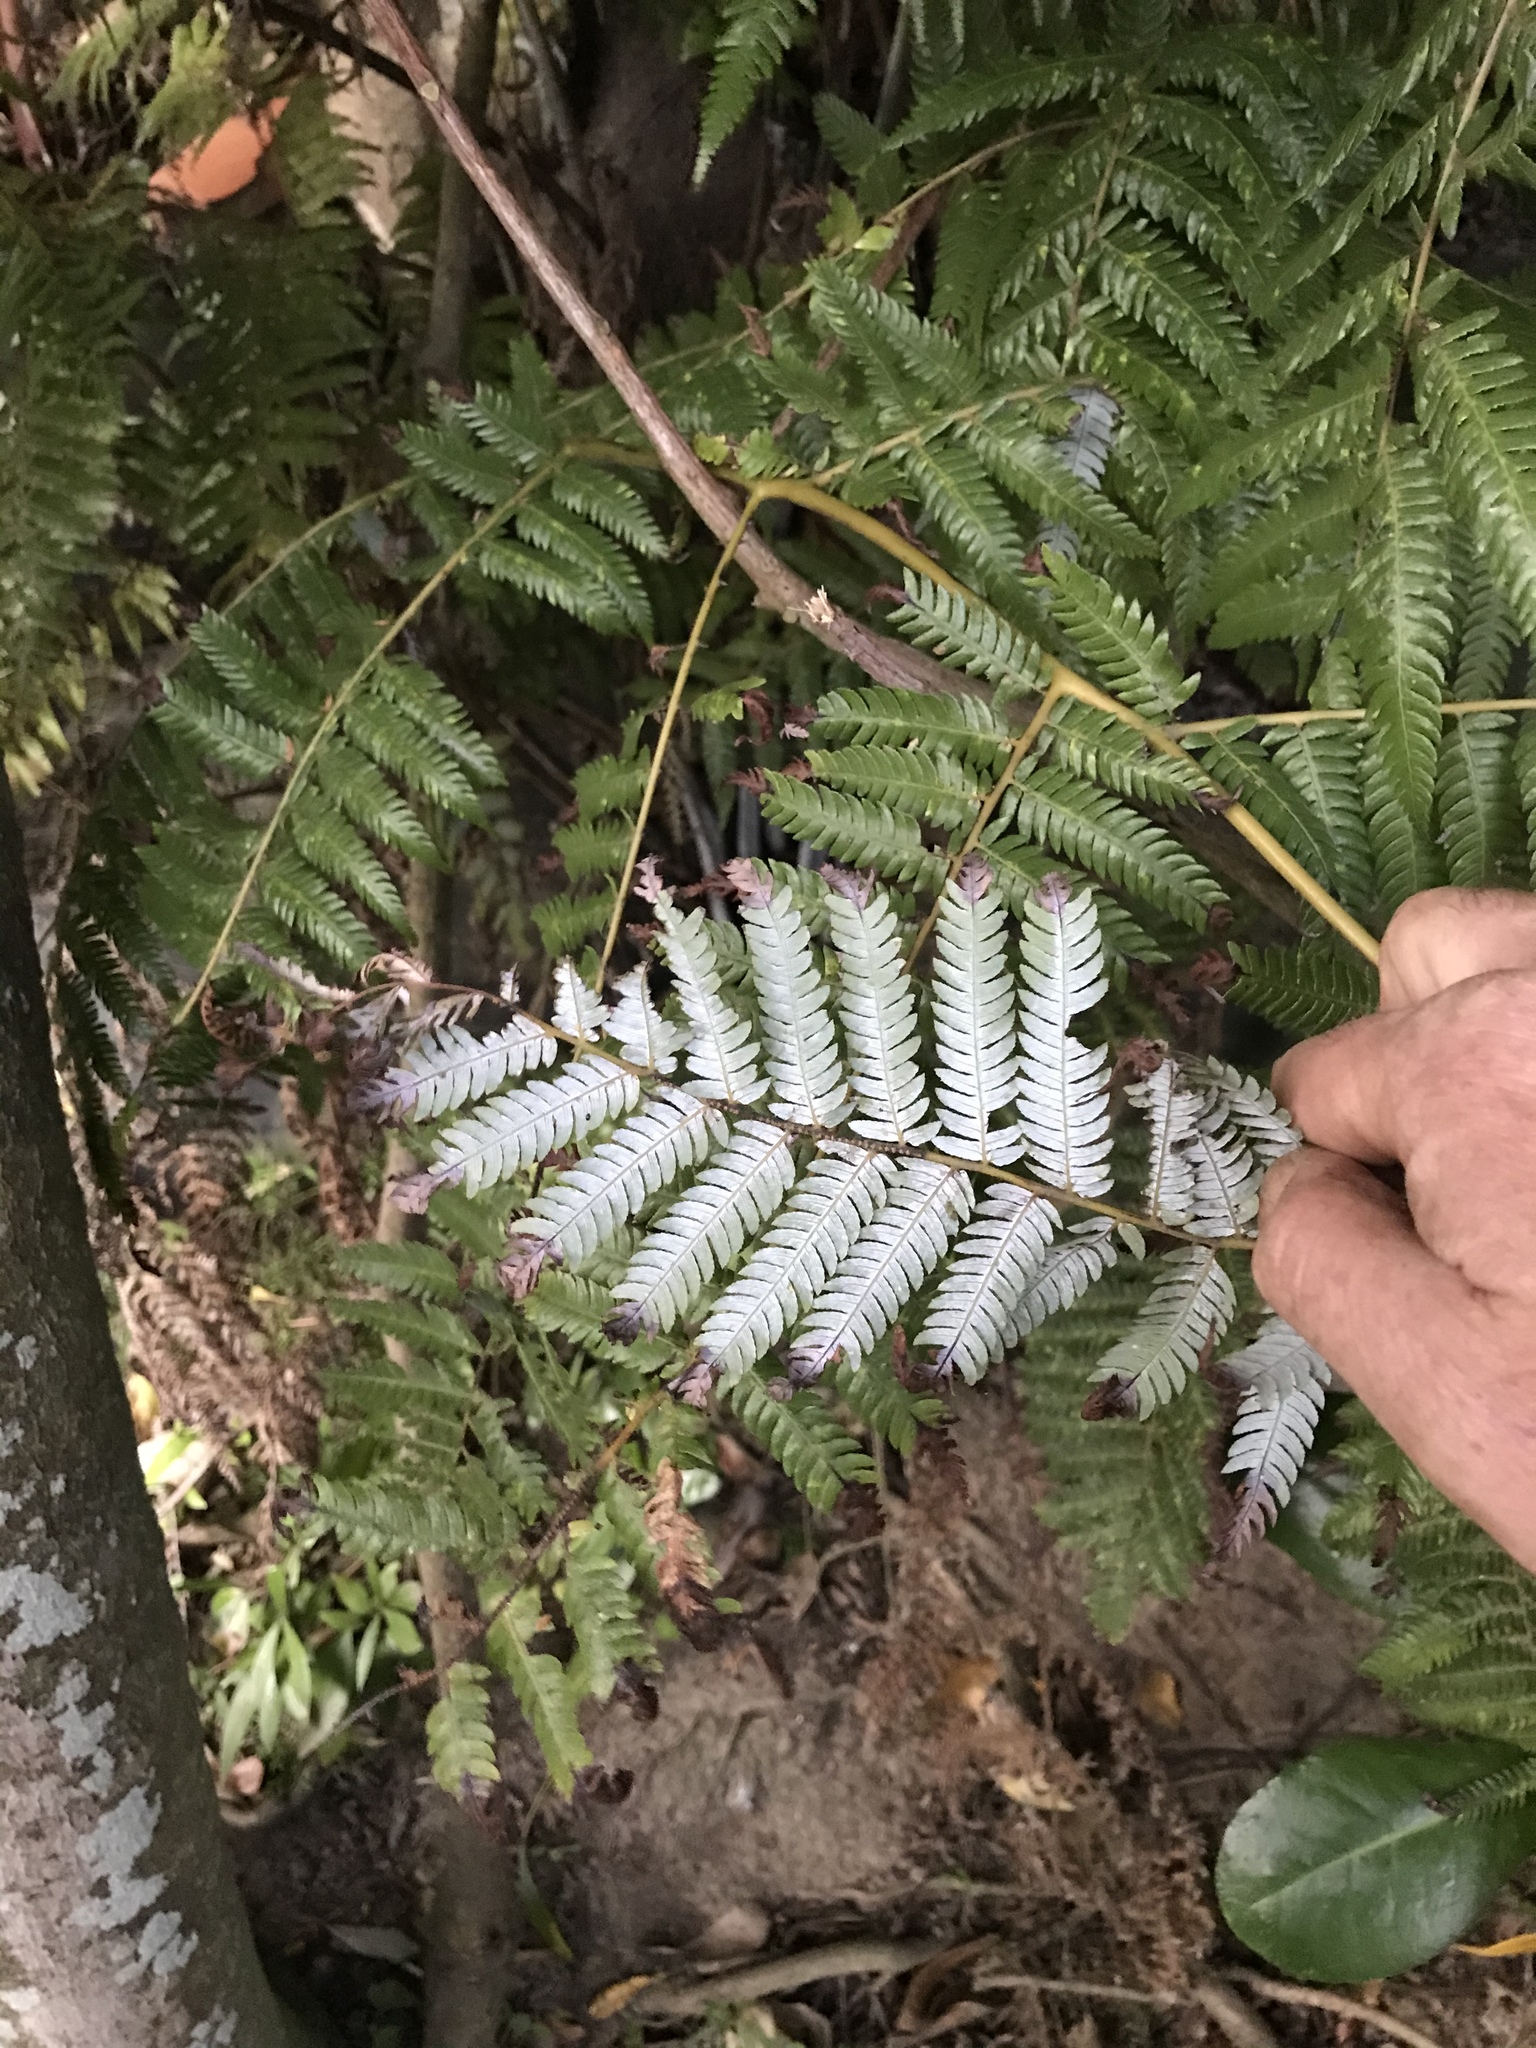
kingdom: Plantae
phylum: Tracheophyta
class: Polypodiopsida
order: Cyatheales
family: Cyatheaceae
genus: Alsophila
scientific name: Alsophila dealbata
